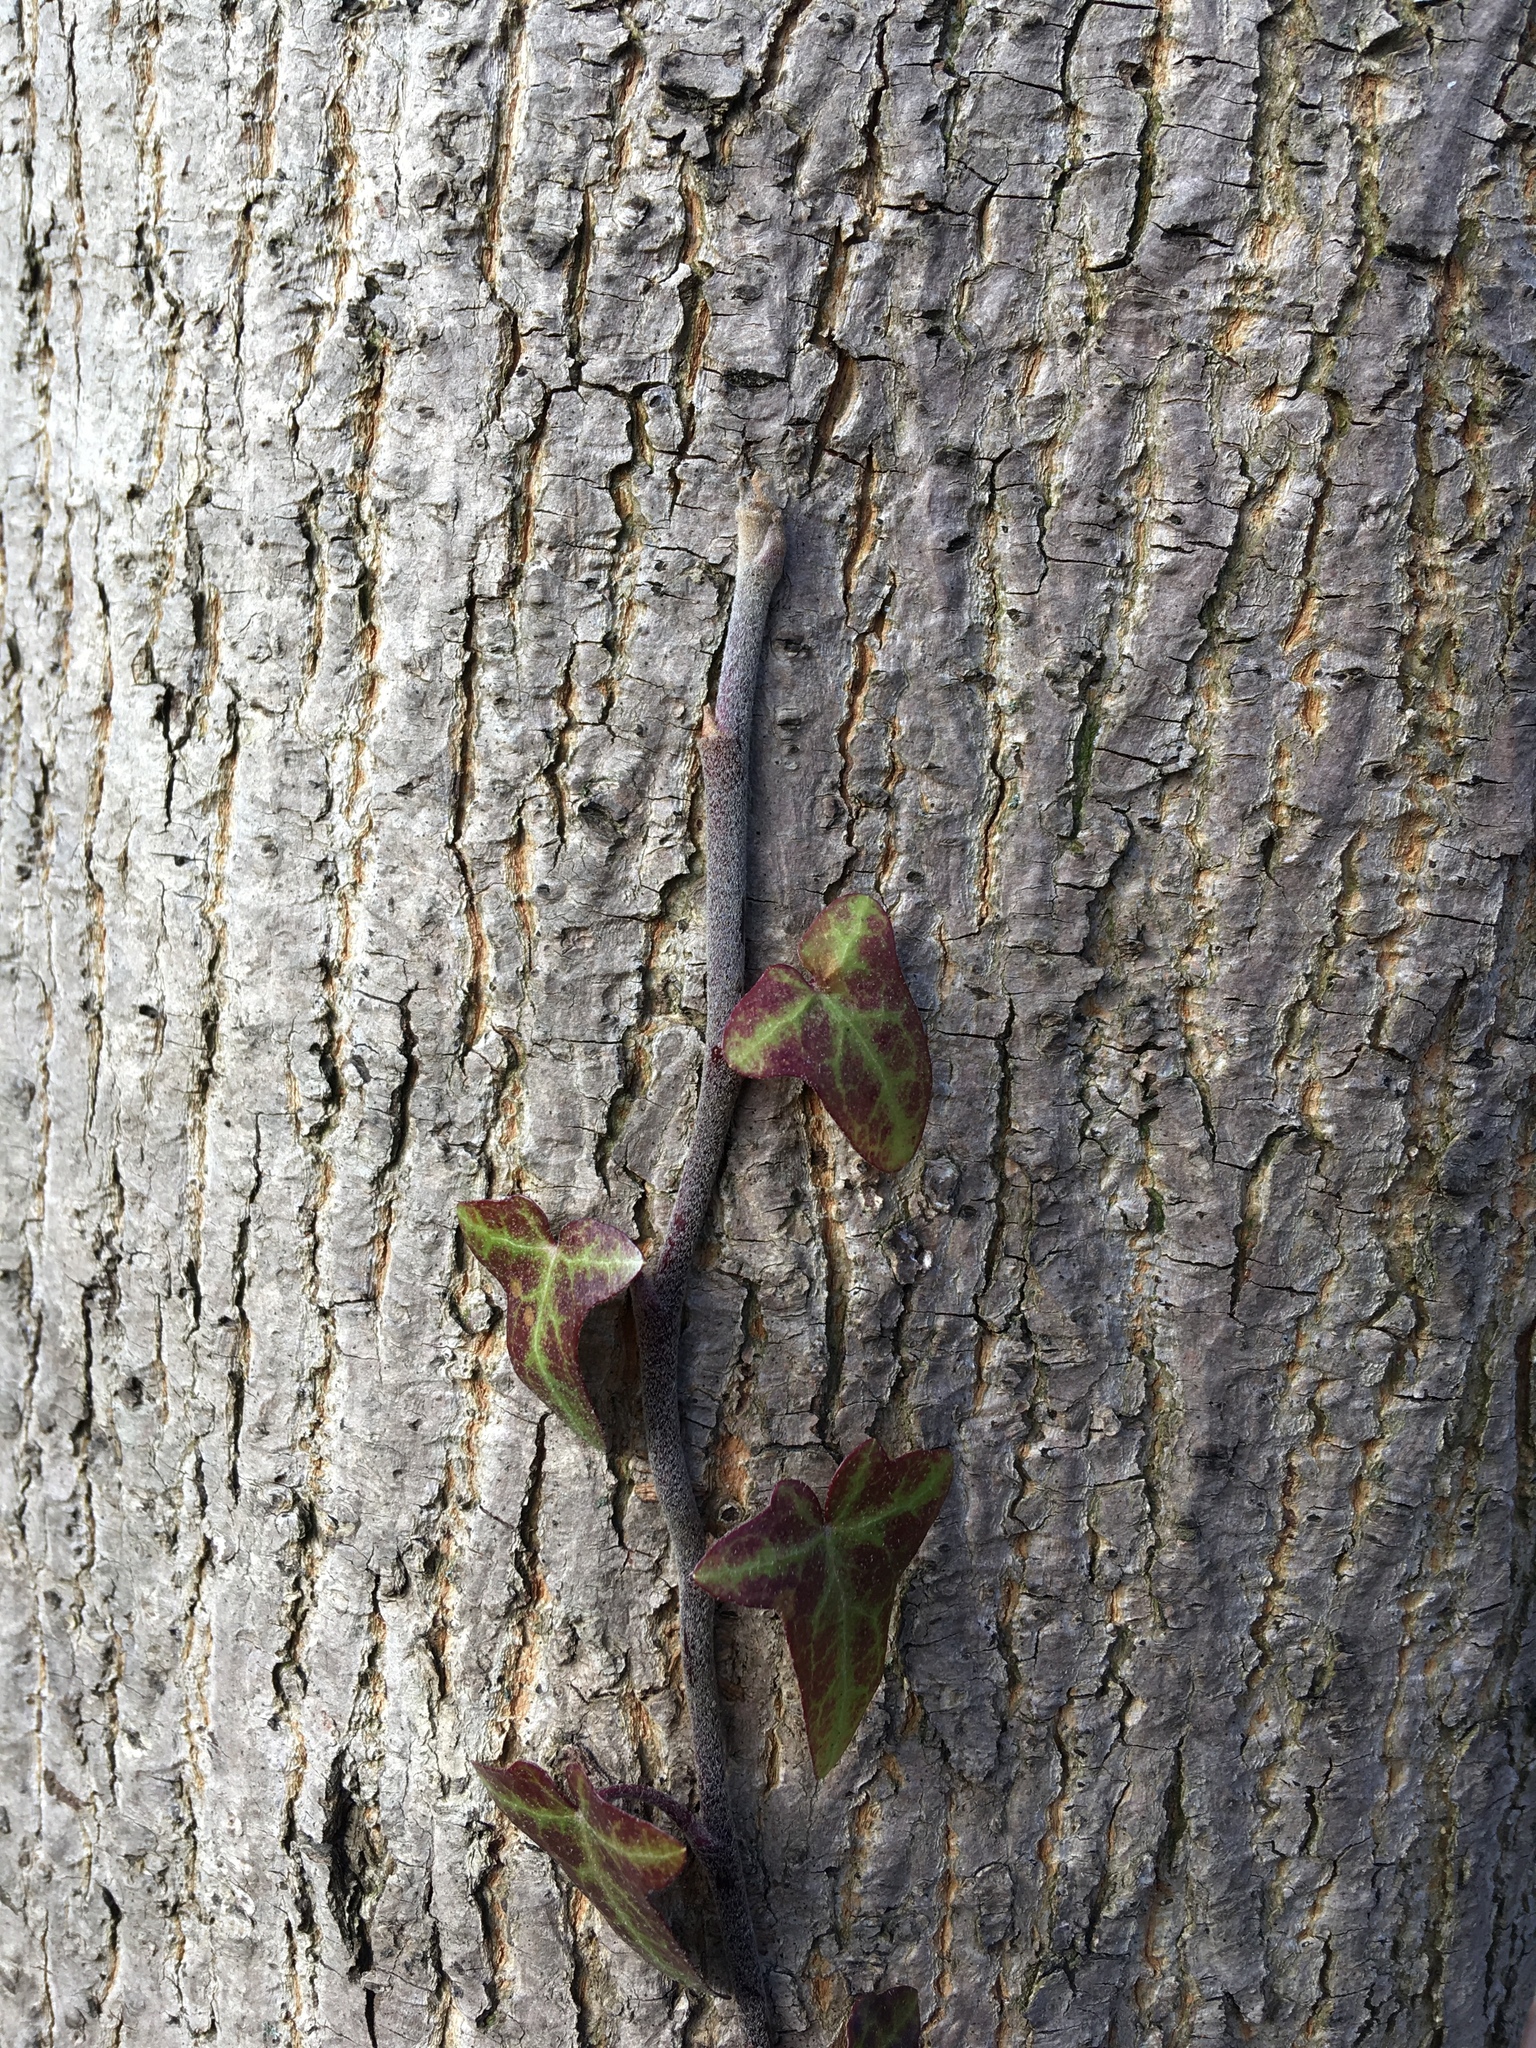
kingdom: Plantae
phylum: Tracheophyta
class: Magnoliopsida
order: Apiales
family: Araliaceae
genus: Hedera
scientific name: Hedera helix
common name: Ivy
